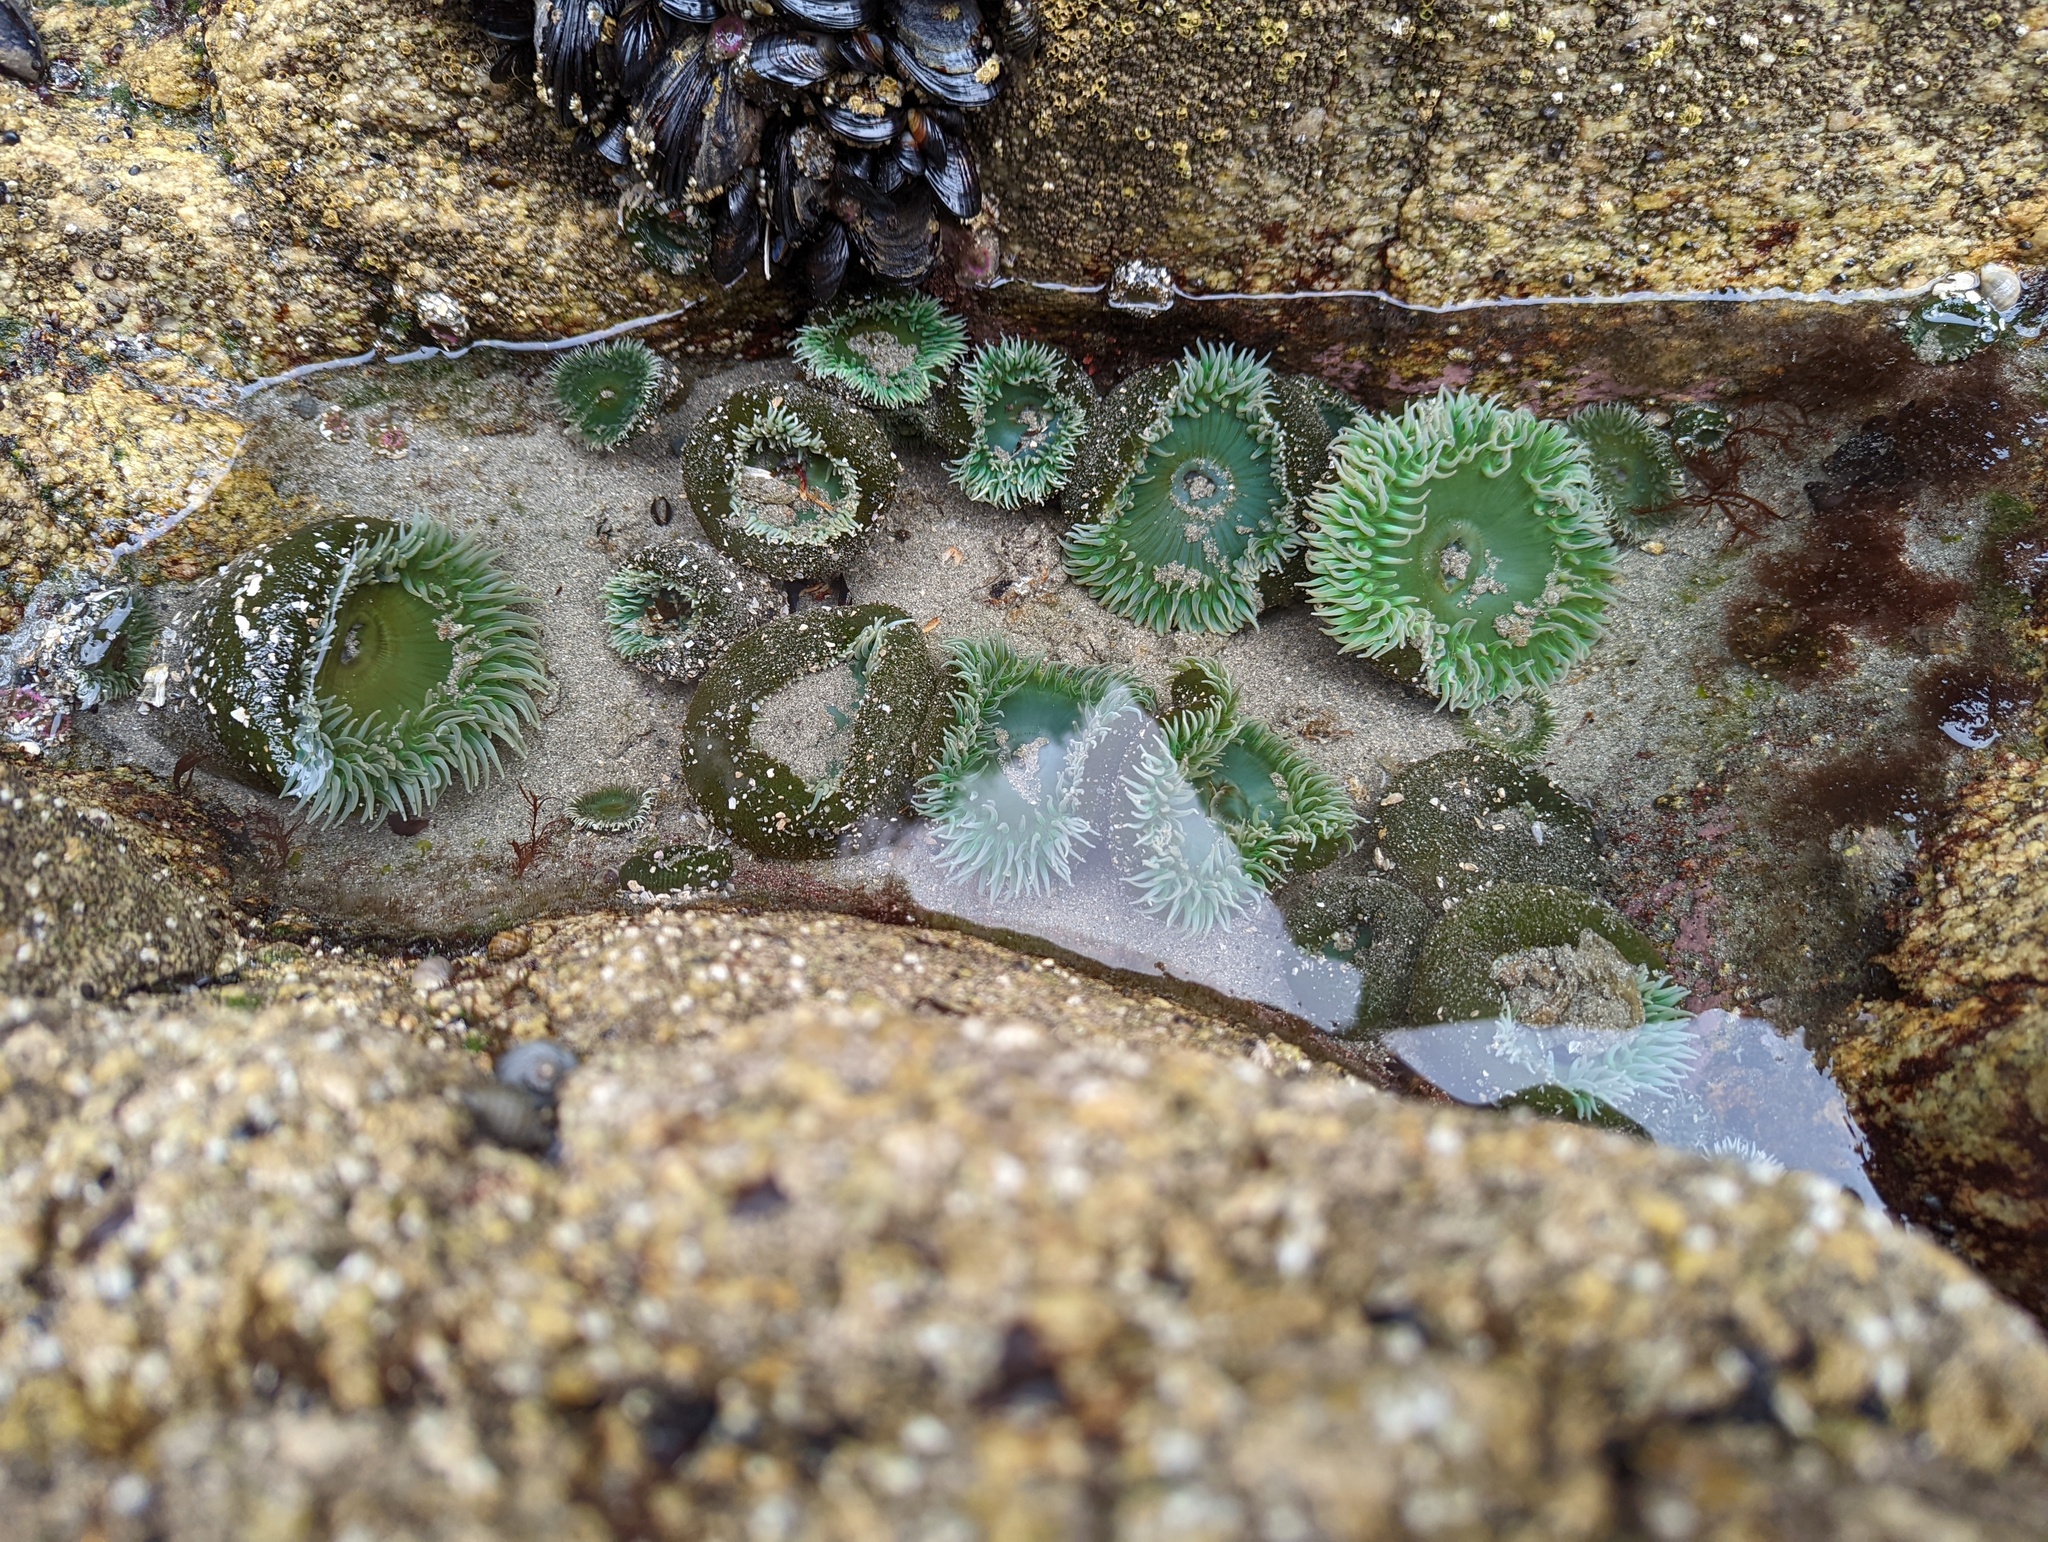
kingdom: Animalia
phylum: Cnidaria
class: Anthozoa
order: Actiniaria
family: Actiniidae
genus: Anthopleura
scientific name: Anthopleura xanthogrammica
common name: Giant green anemone
